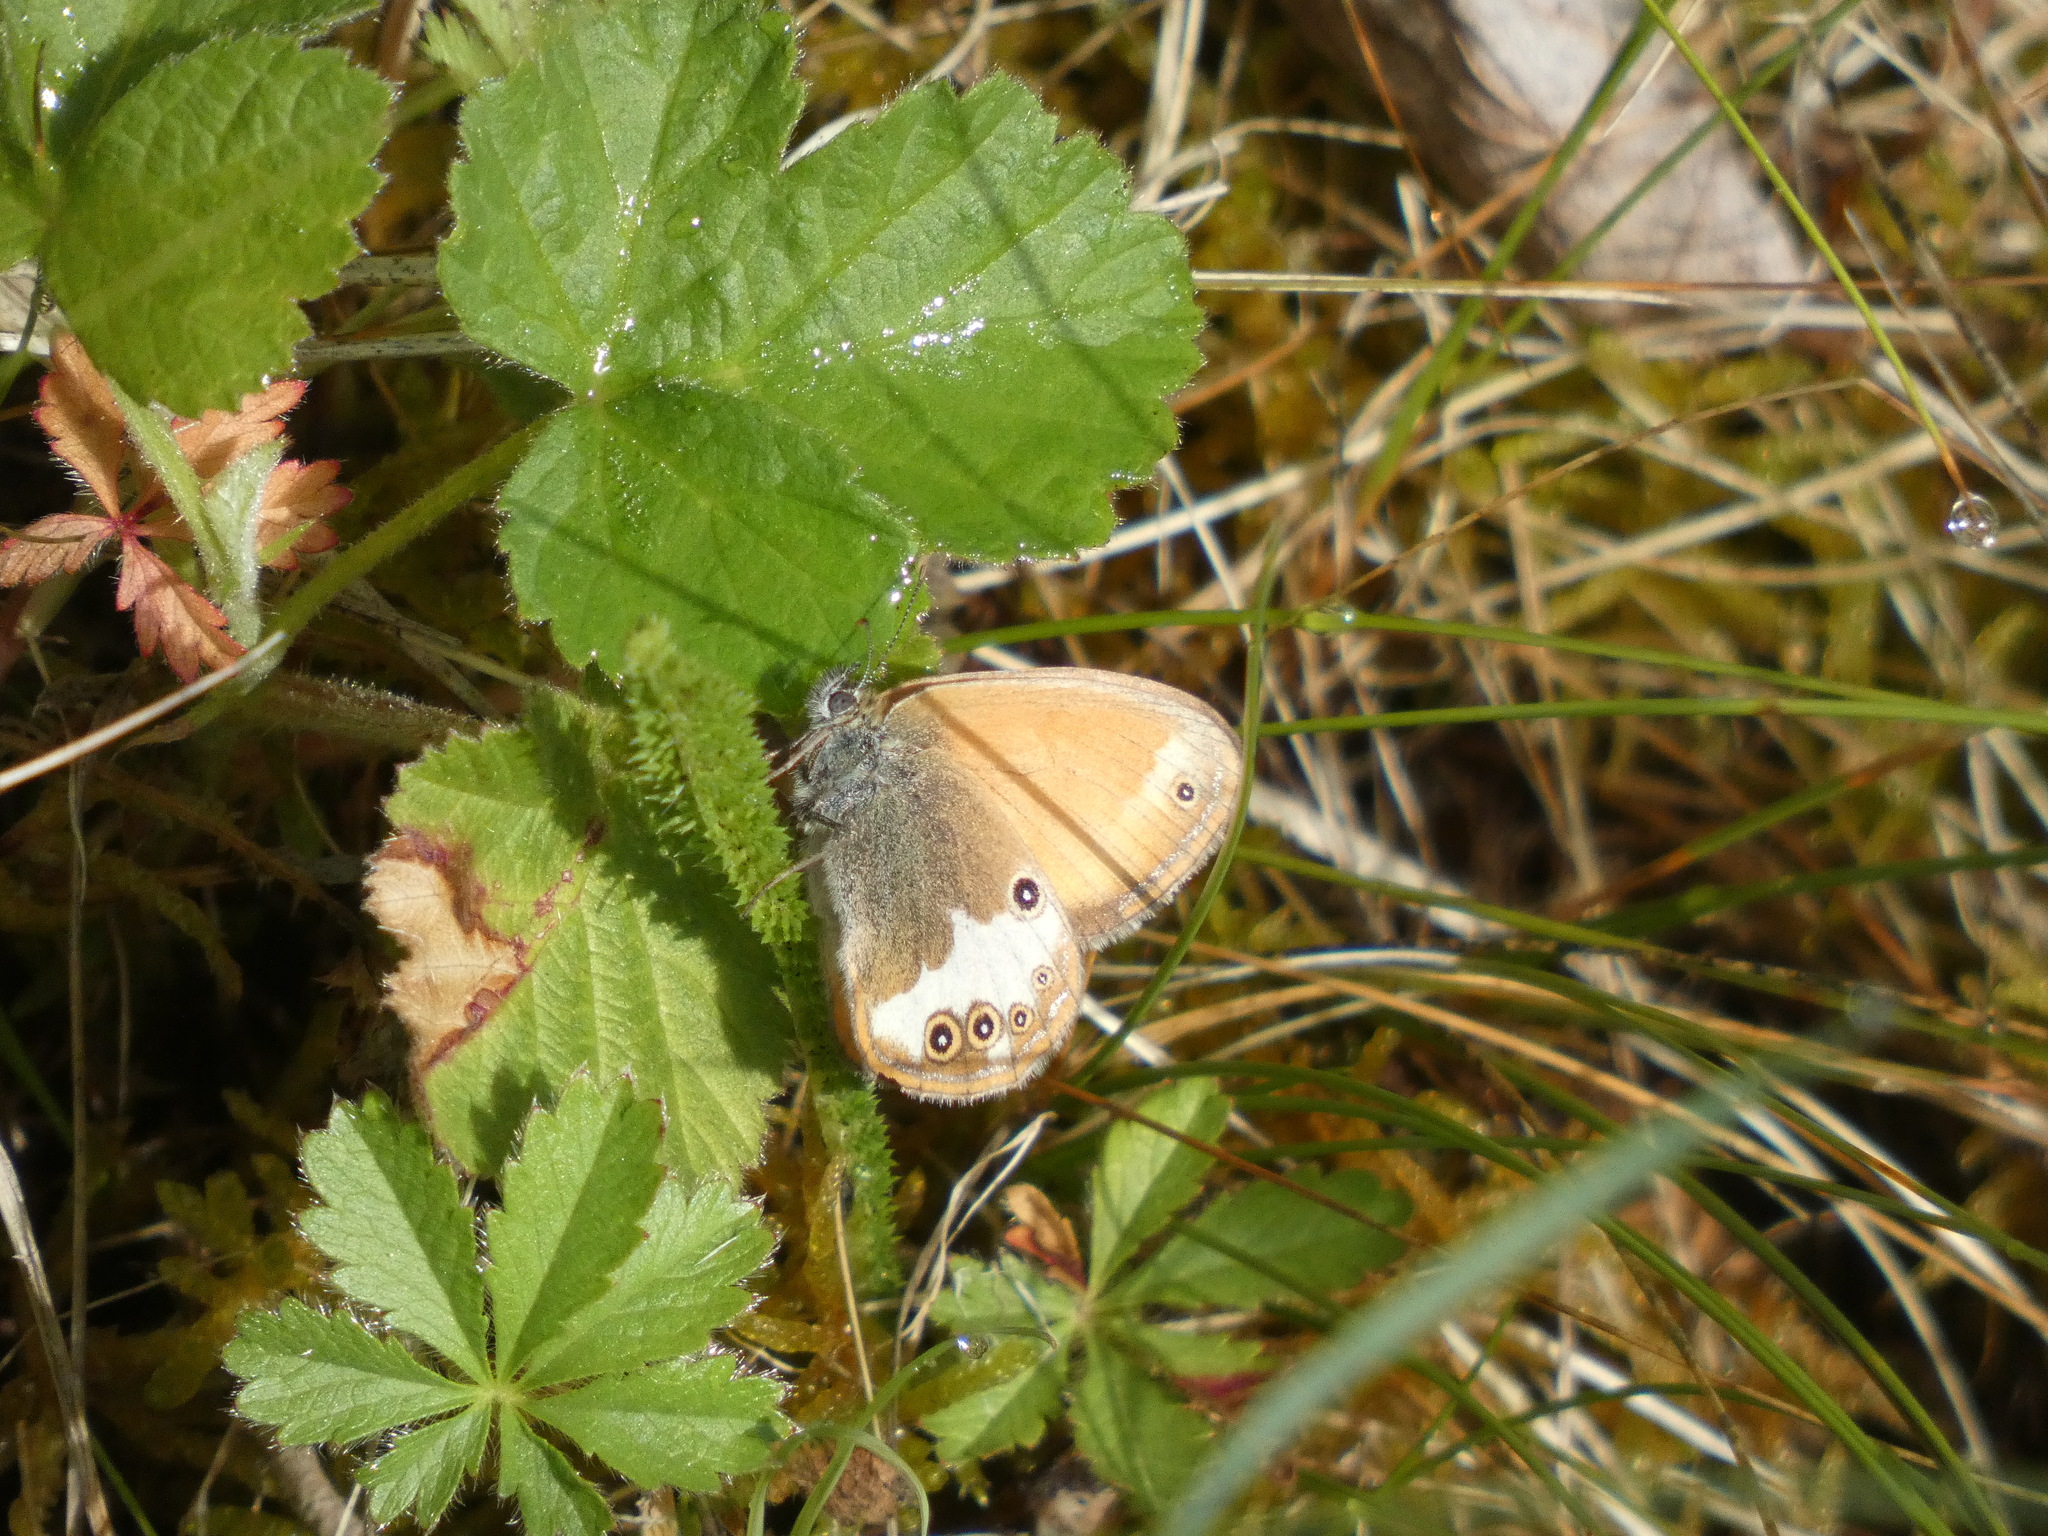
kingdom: Animalia
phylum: Arthropoda
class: Insecta
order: Lepidoptera
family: Nymphalidae
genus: Coenonympha
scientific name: Coenonympha arcania
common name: Pearly heath
